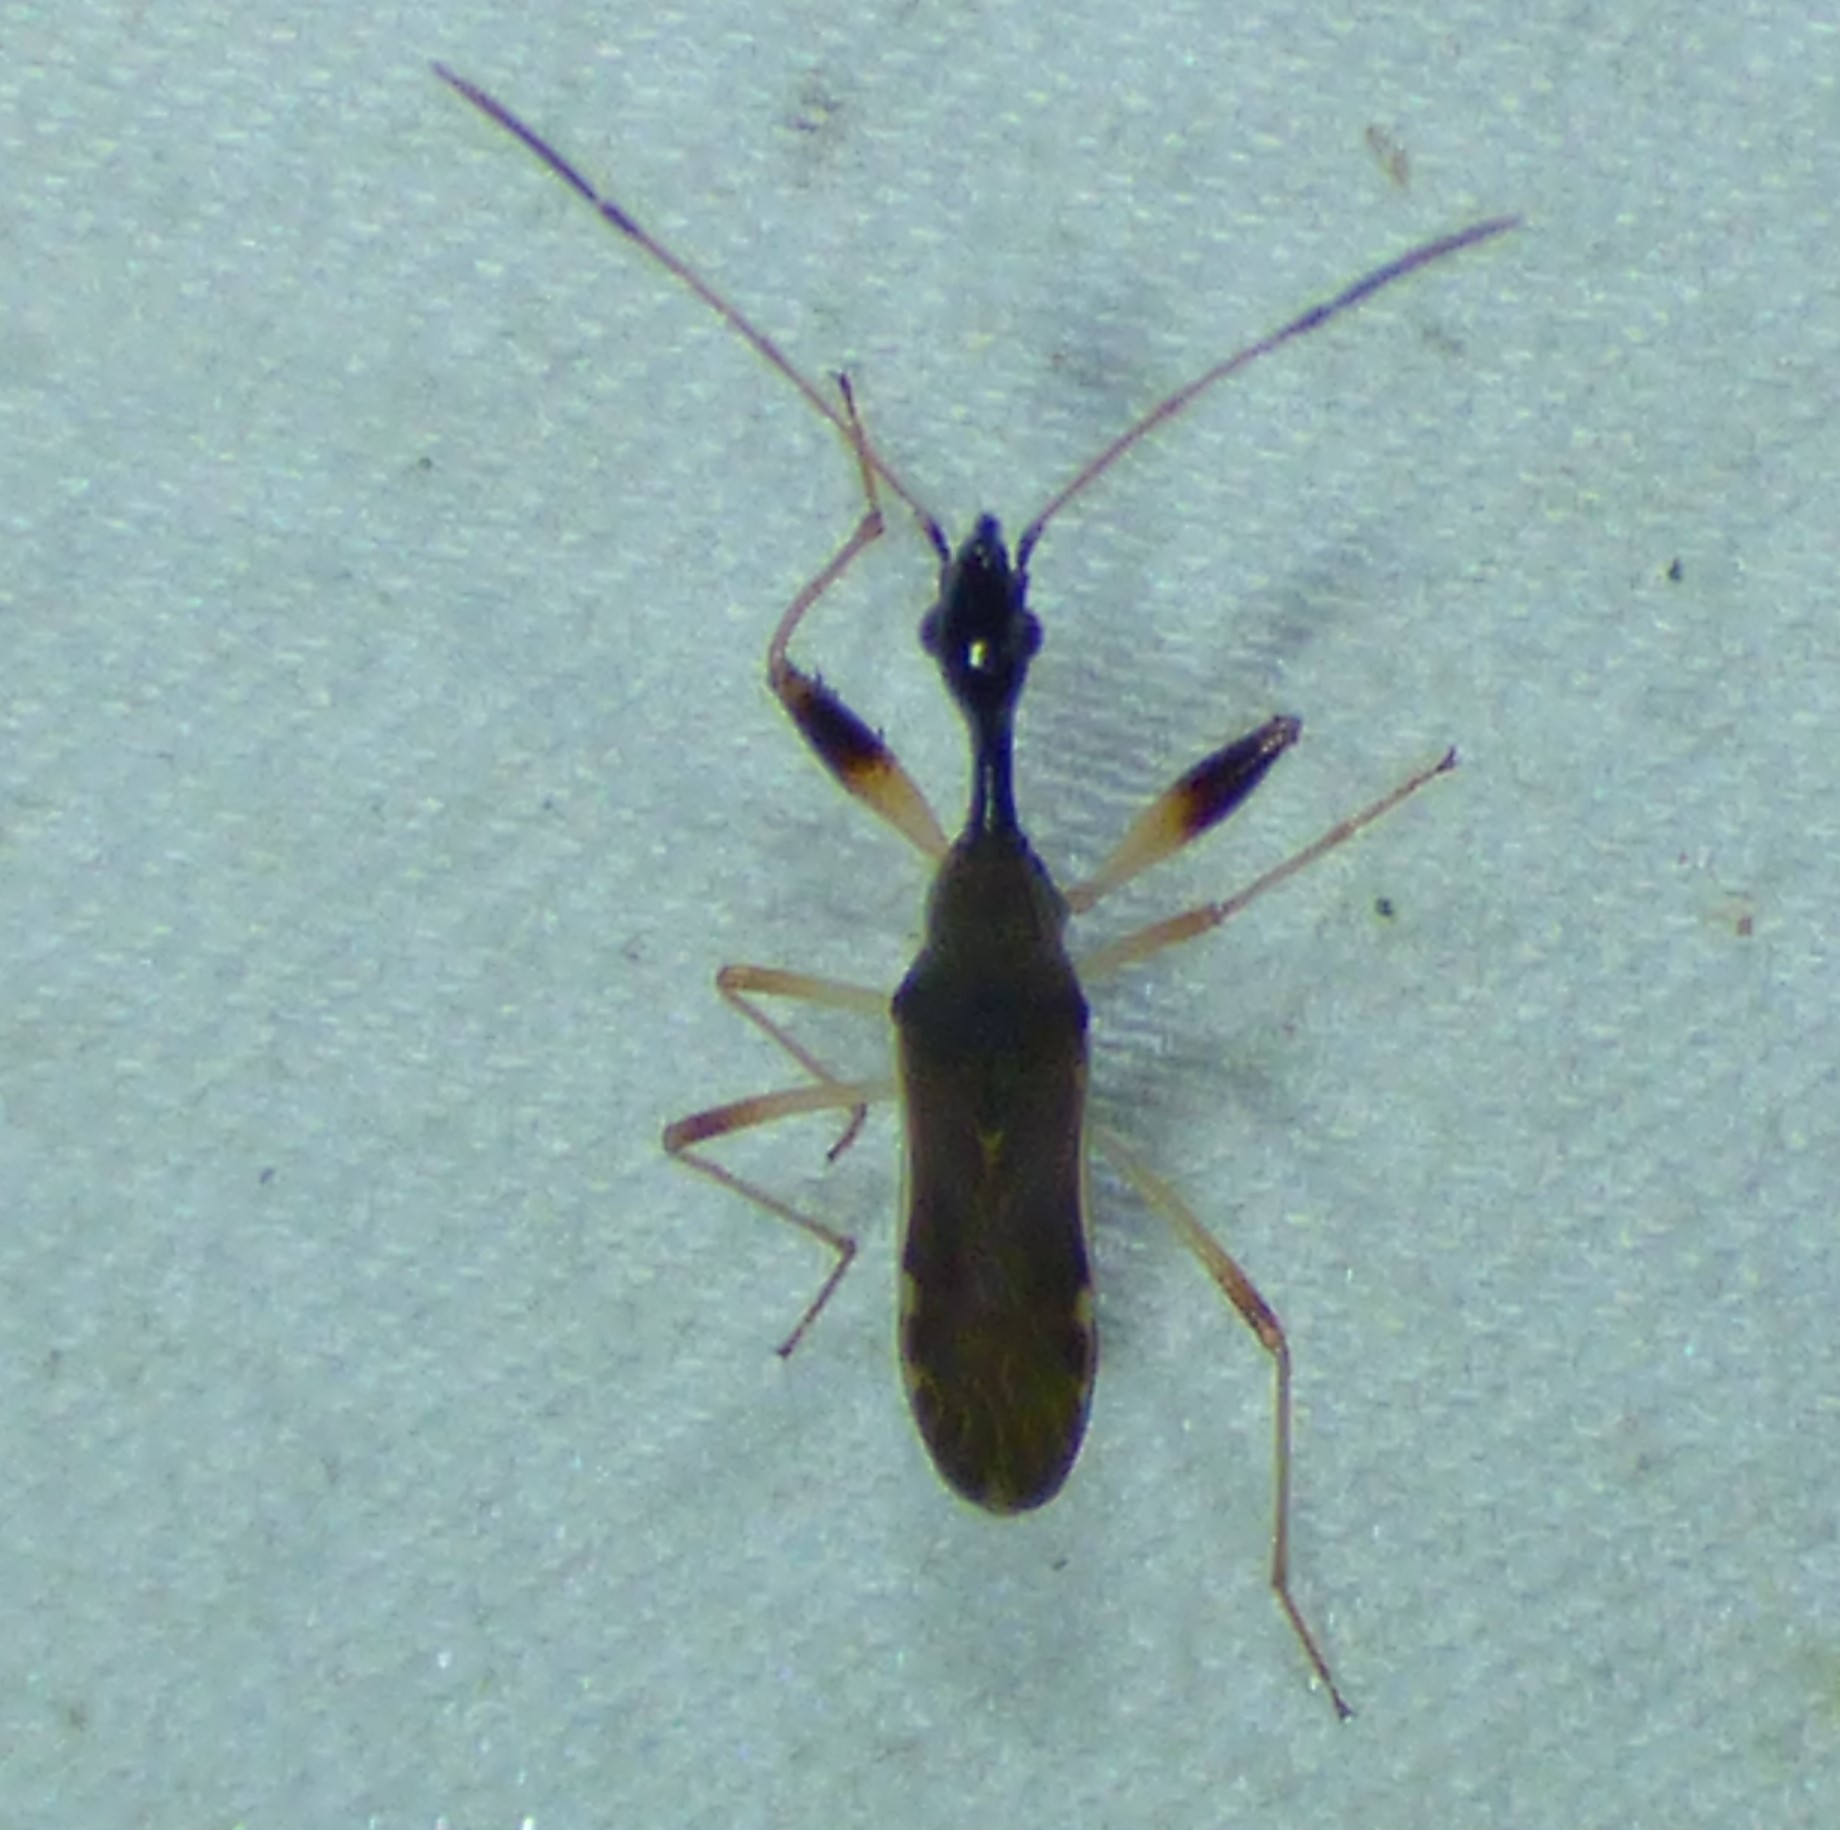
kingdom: Animalia
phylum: Arthropoda
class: Insecta
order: Hemiptera
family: Rhyparochromidae
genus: Myodocha
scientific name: Myodocha serripes
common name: Long-necked seed bug
